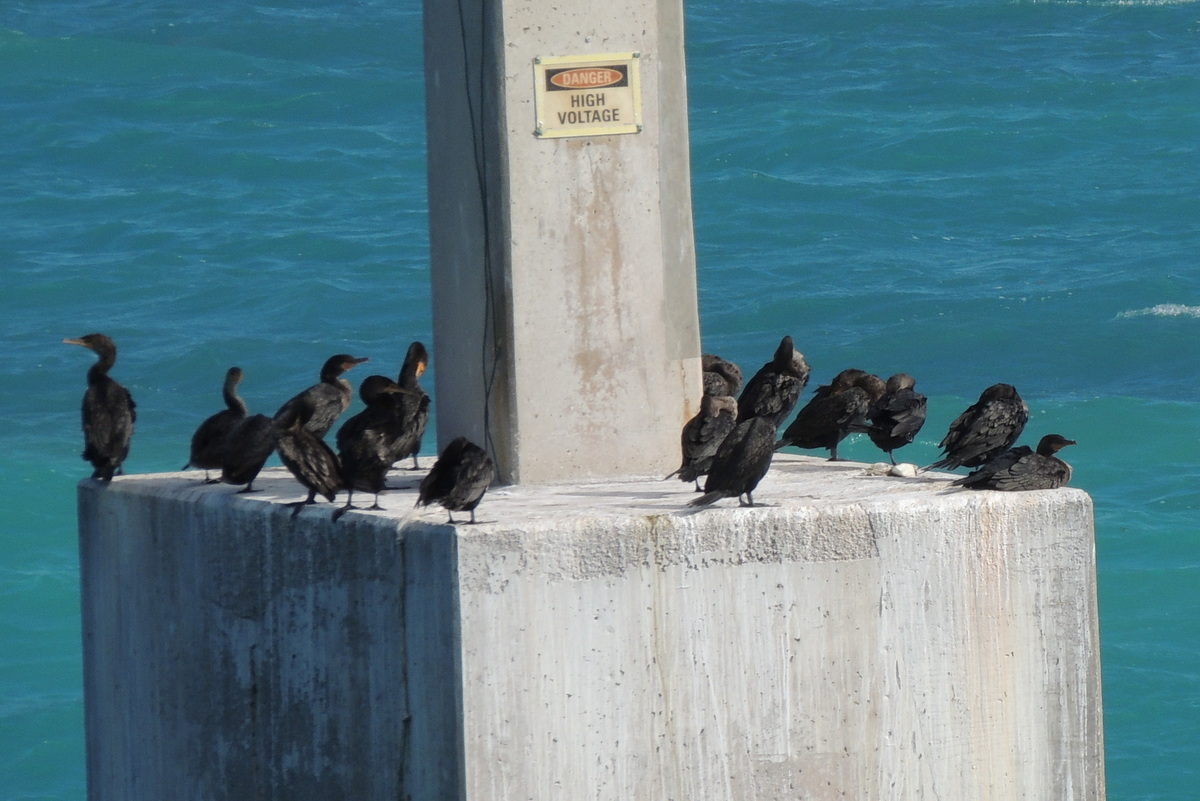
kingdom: Animalia
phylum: Chordata
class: Aves
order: Suliformes
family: Phalacrocoracidae
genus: Phalacrocorax
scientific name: Phalacrocorax auritus
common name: Double-crested cormorant
